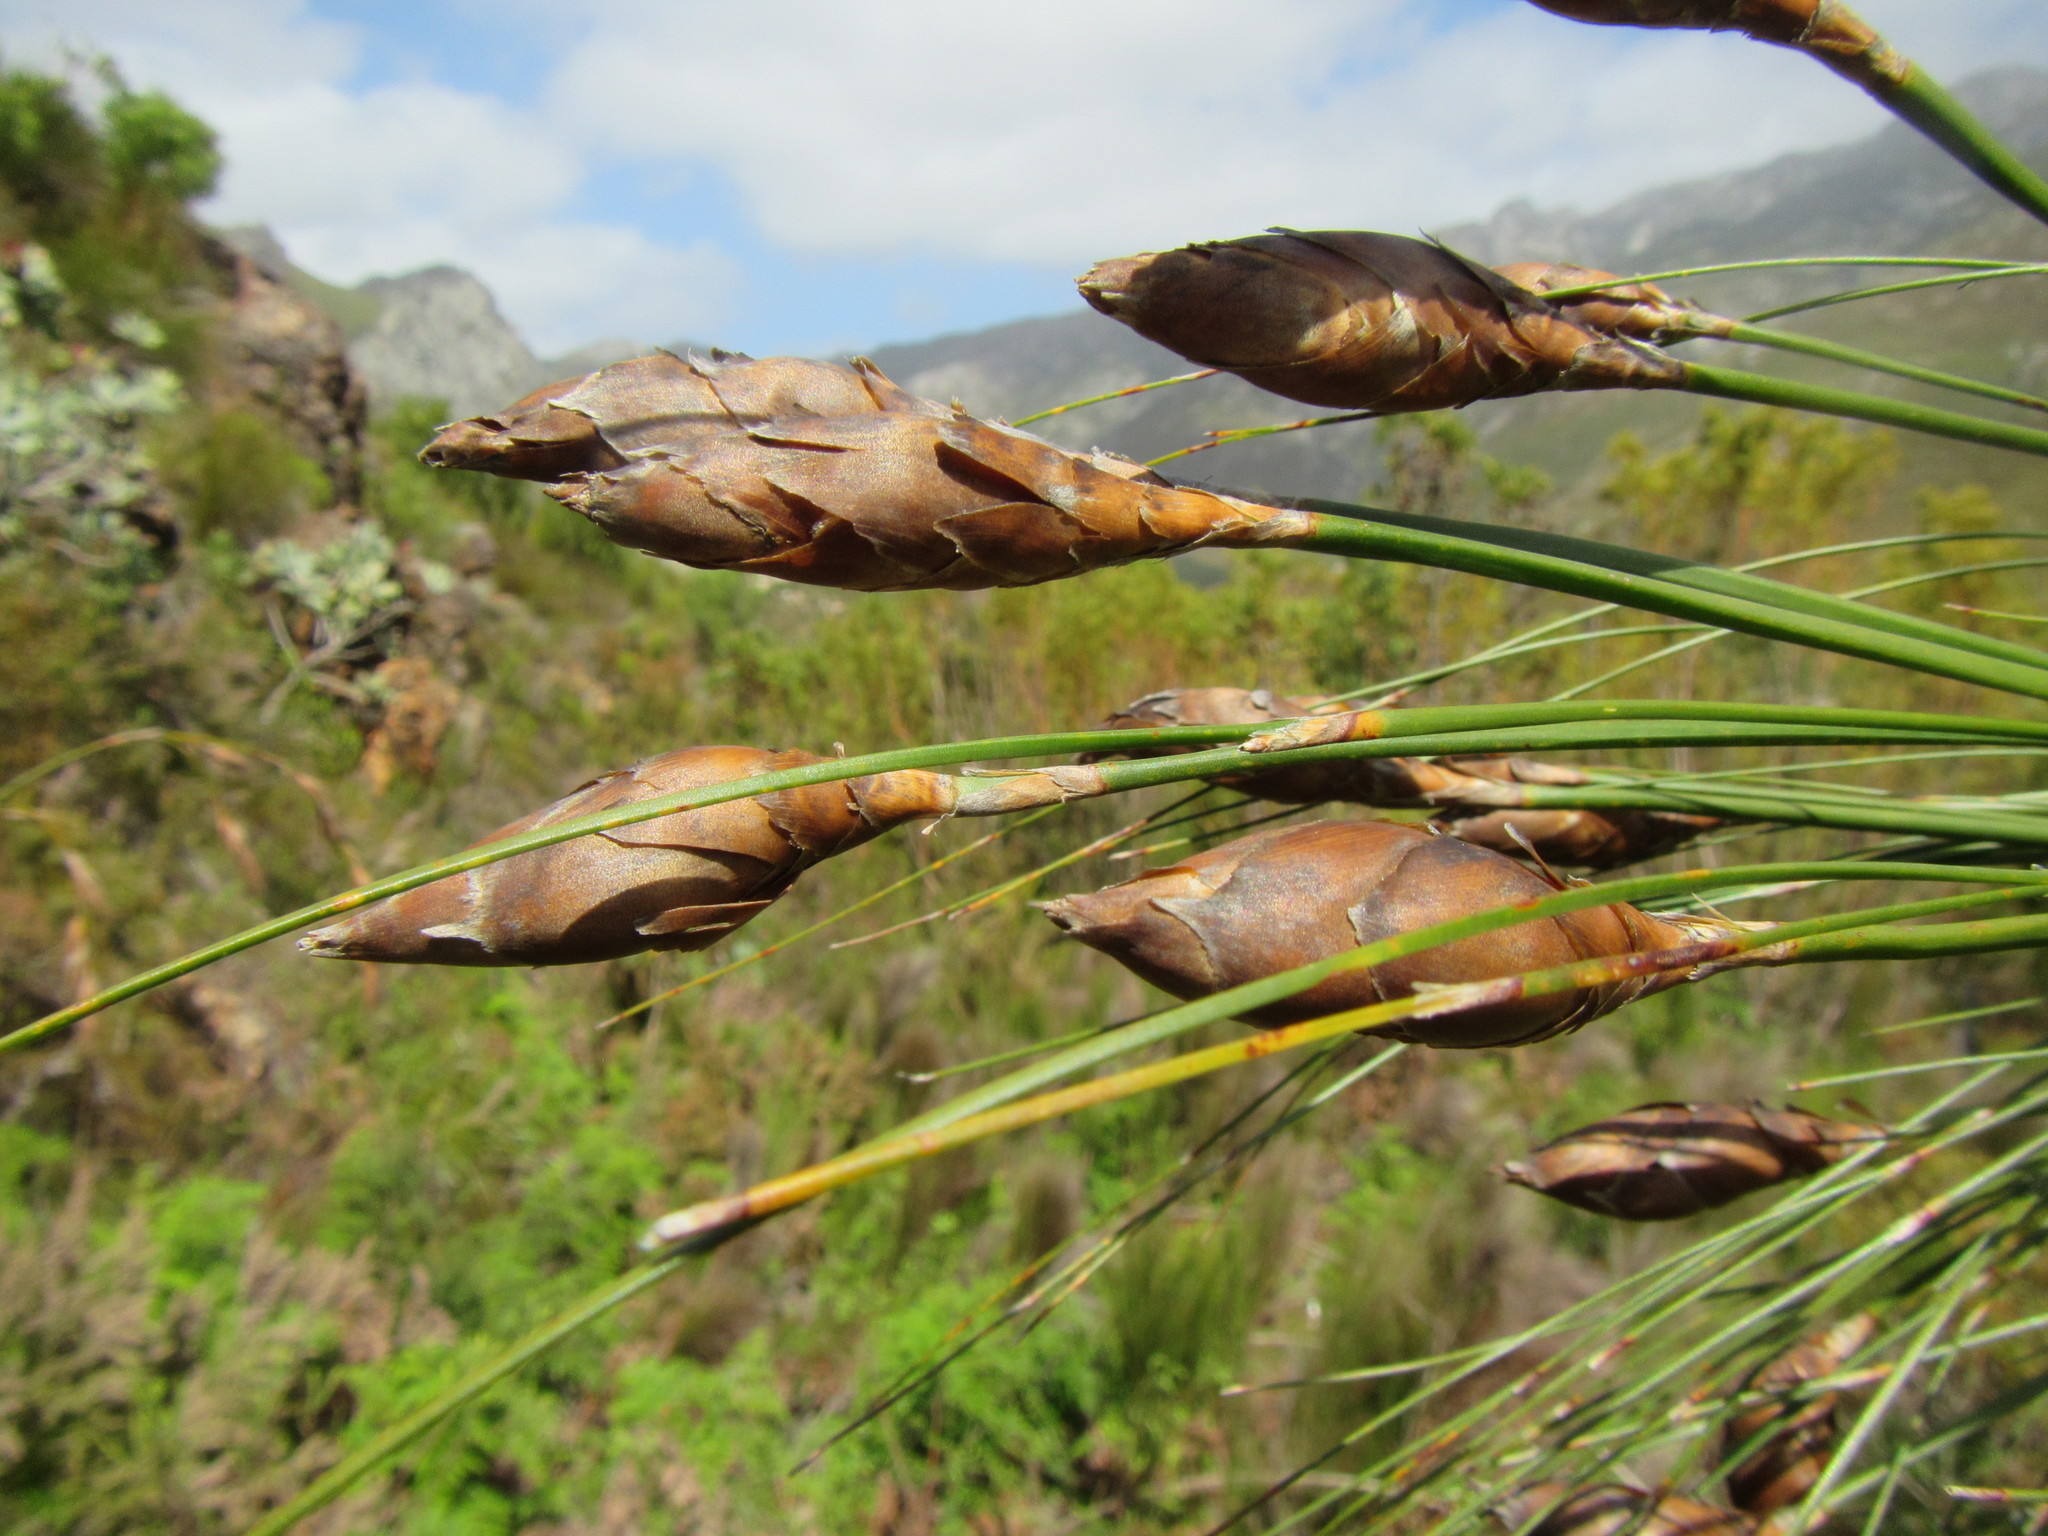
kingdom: Plantae
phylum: Tracheophyta
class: Liliopsida
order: Poales
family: Restionaceae
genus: Cannomois
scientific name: Cannomois grandis
